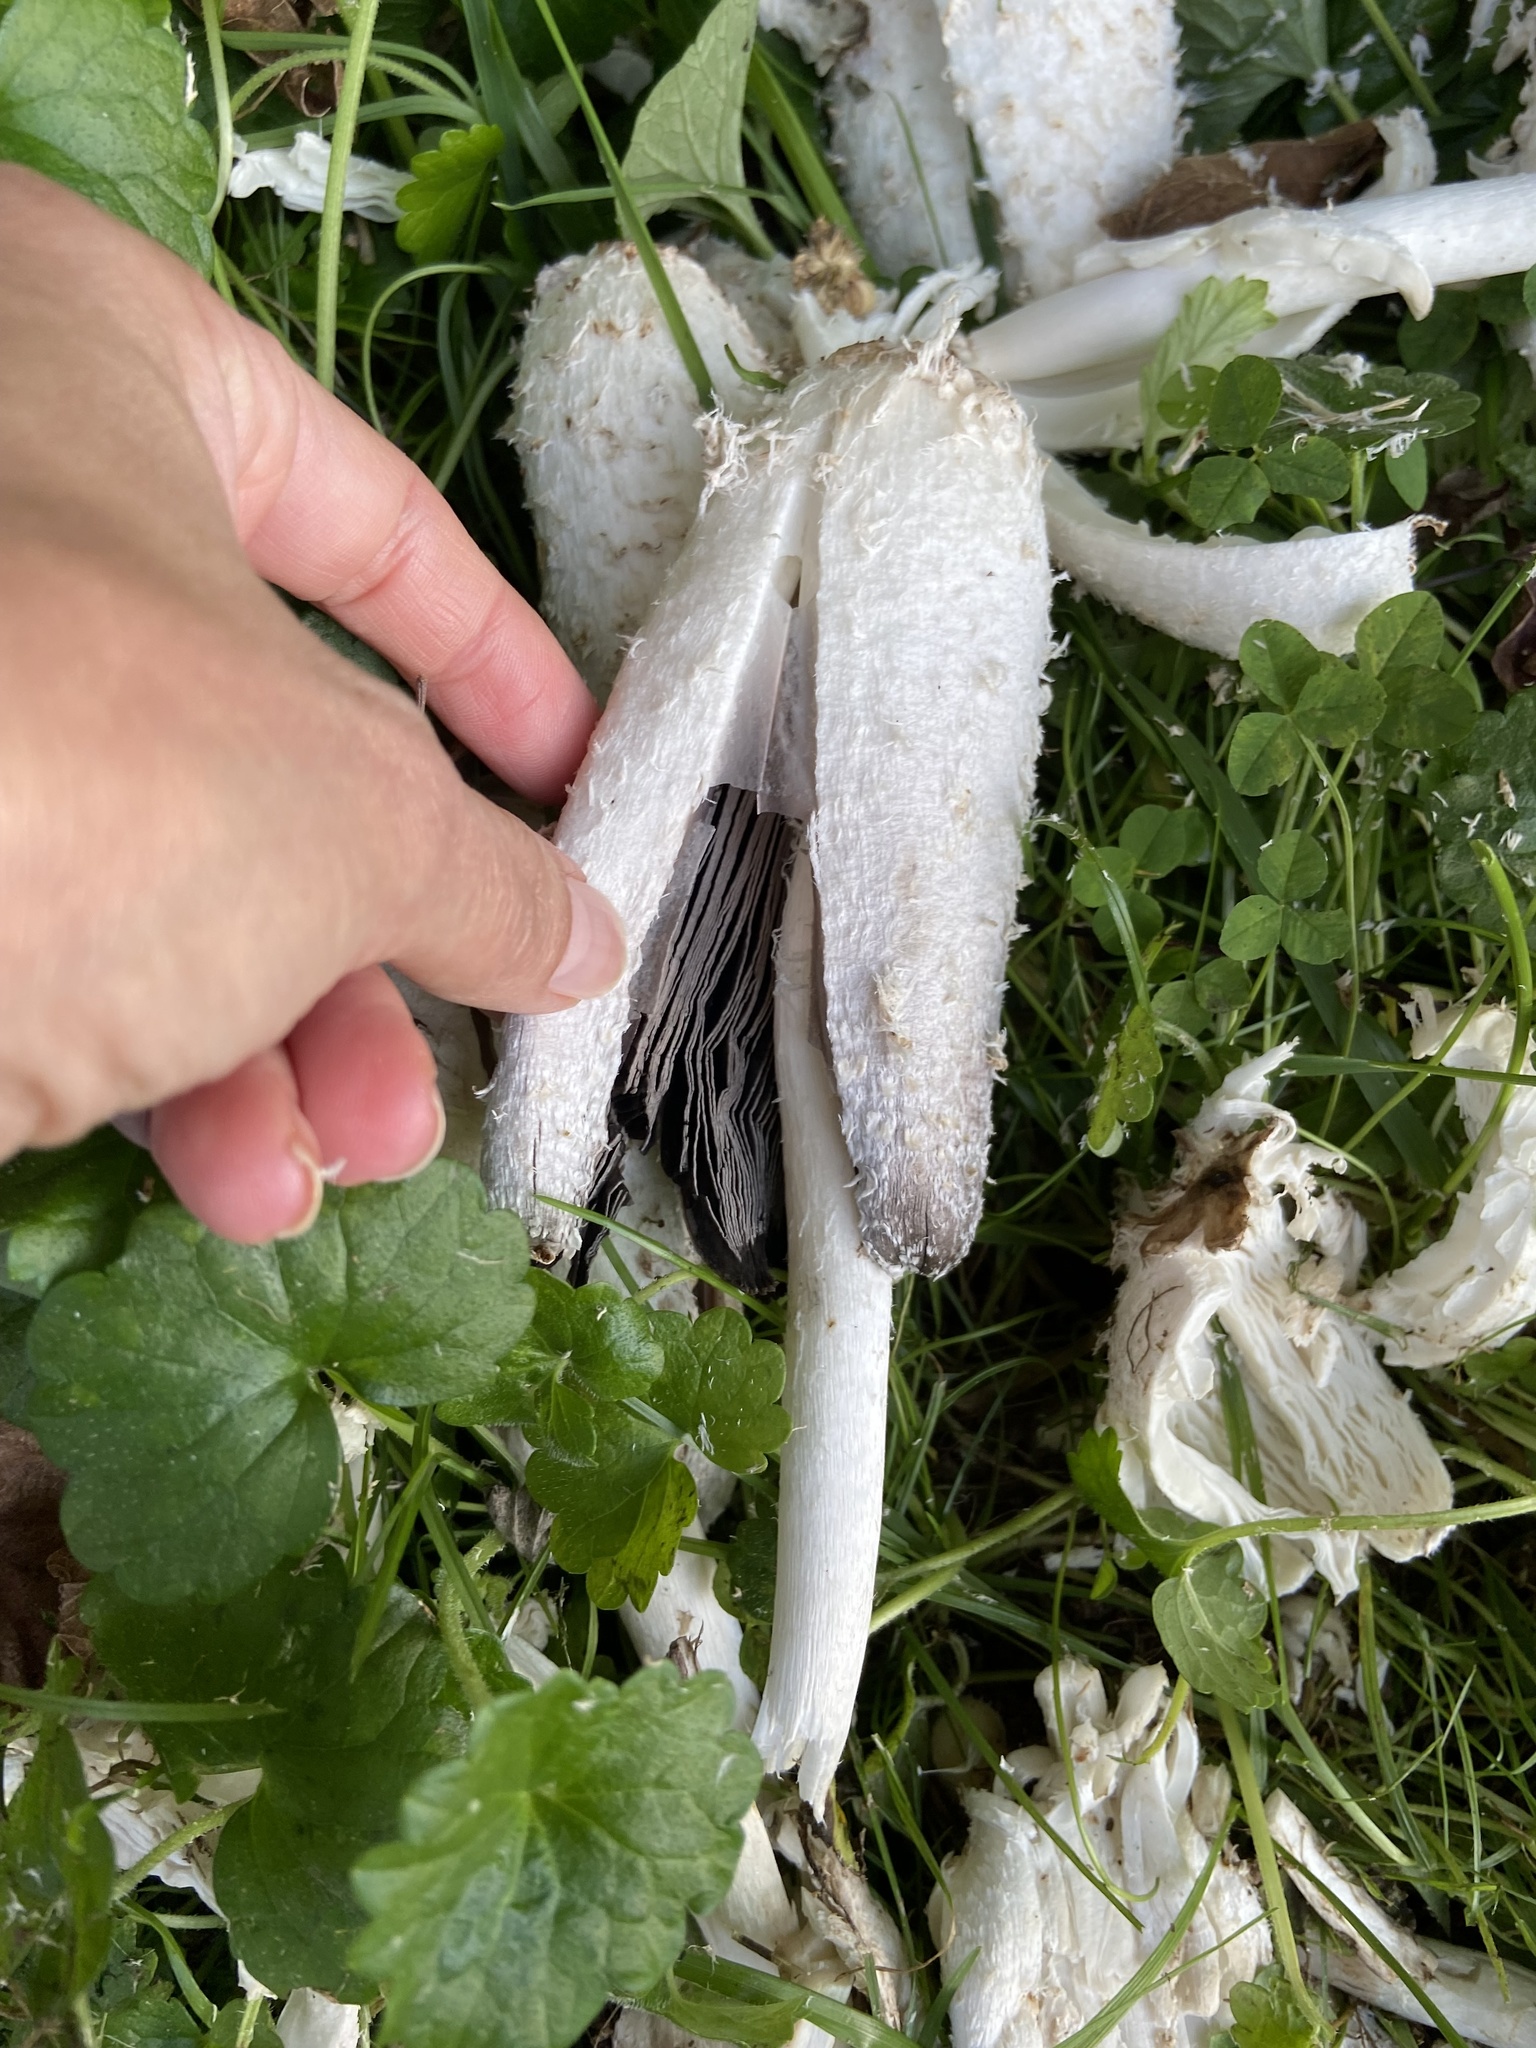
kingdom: Fungi
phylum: Basidiomycota
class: Agaricomycetes
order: Agaricales
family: Agaricaceae
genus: Coprinus
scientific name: Coprinus comatus
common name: Lawyer's wig
